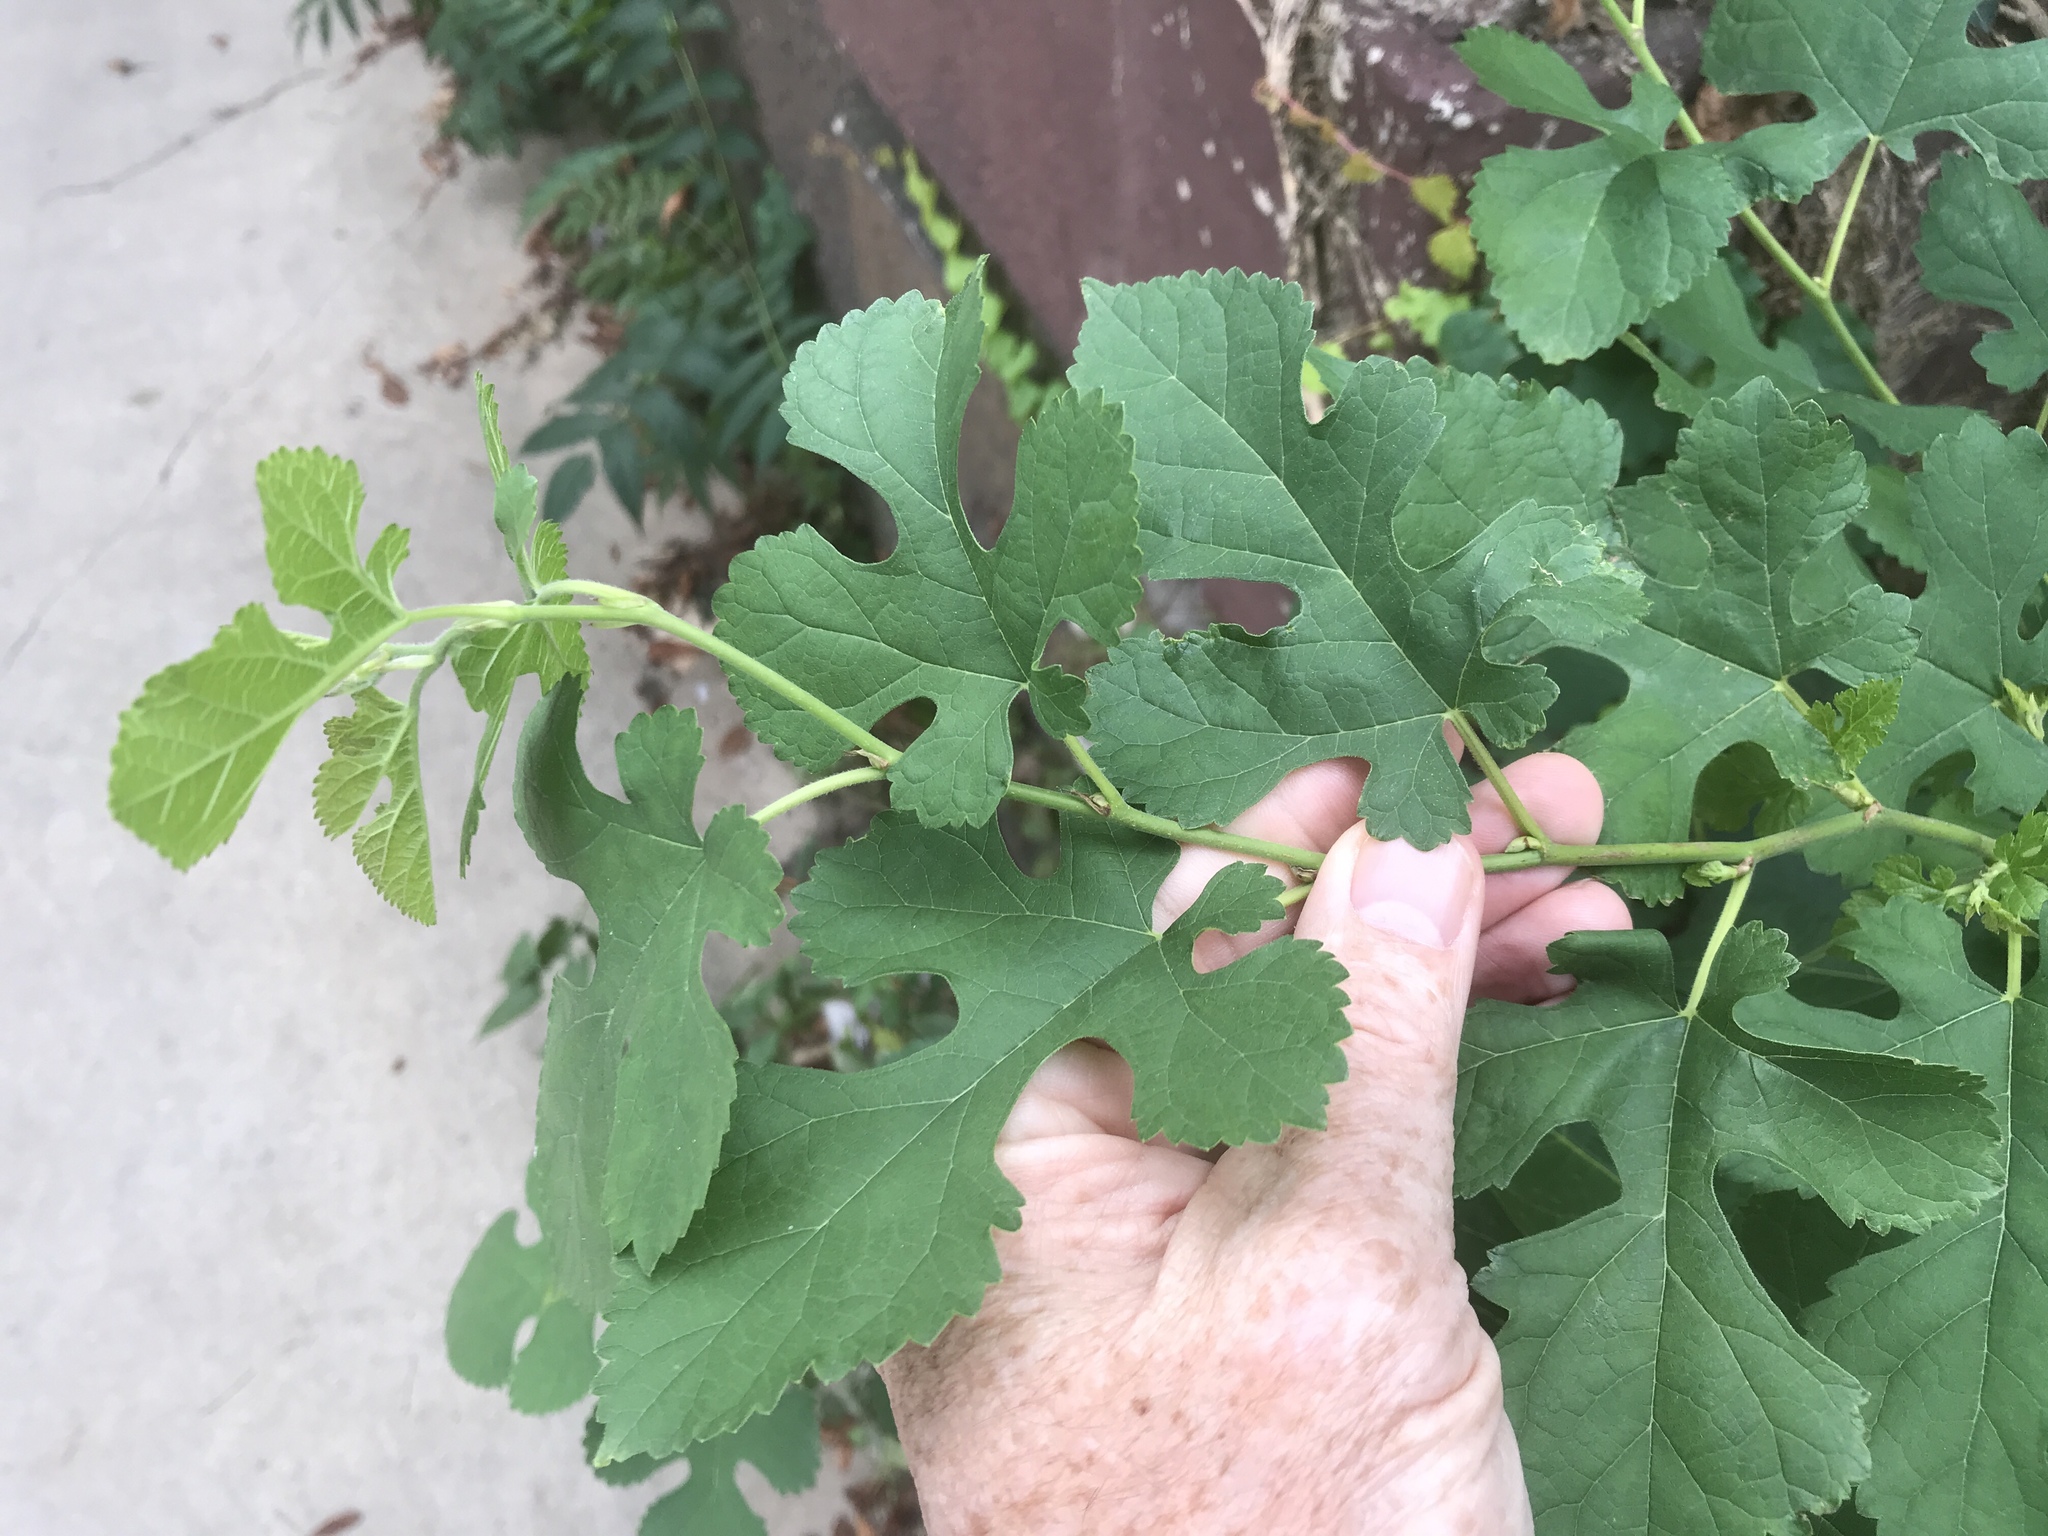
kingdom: Plantae
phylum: Tracheophyta
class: Magnoliopsida
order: Rosales
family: Moraceae
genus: Morus
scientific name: Morus alba
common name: White mulberry
